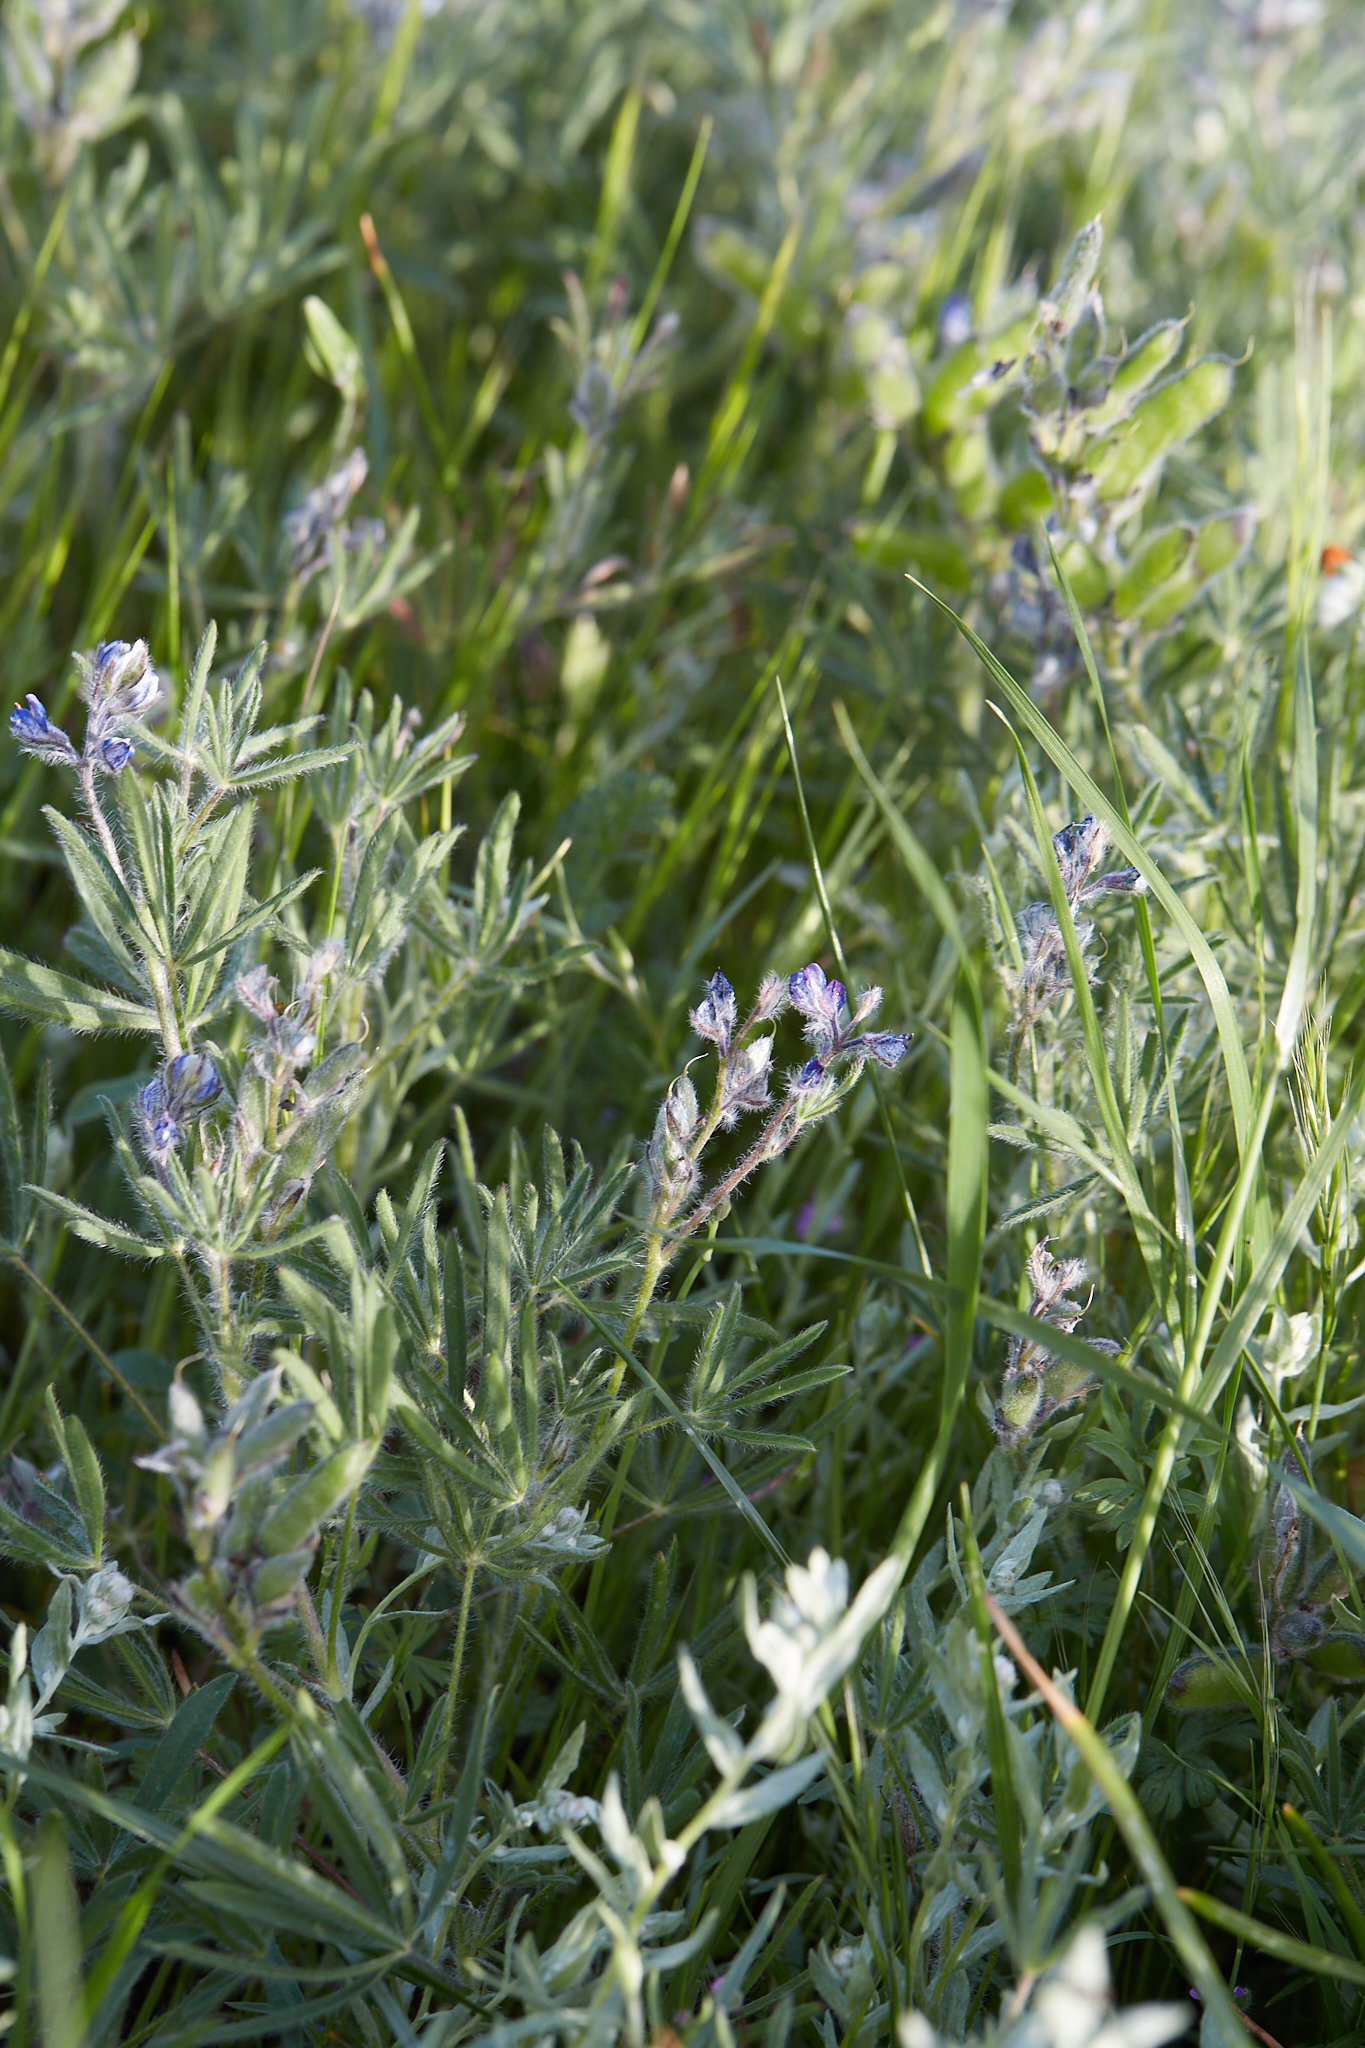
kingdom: Plantae
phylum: Tracheophyta
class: Magnoliopsida
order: Fabales
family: Fabaceae
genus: Lupinus
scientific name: Lupinus bicolor
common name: Miniature lupine
